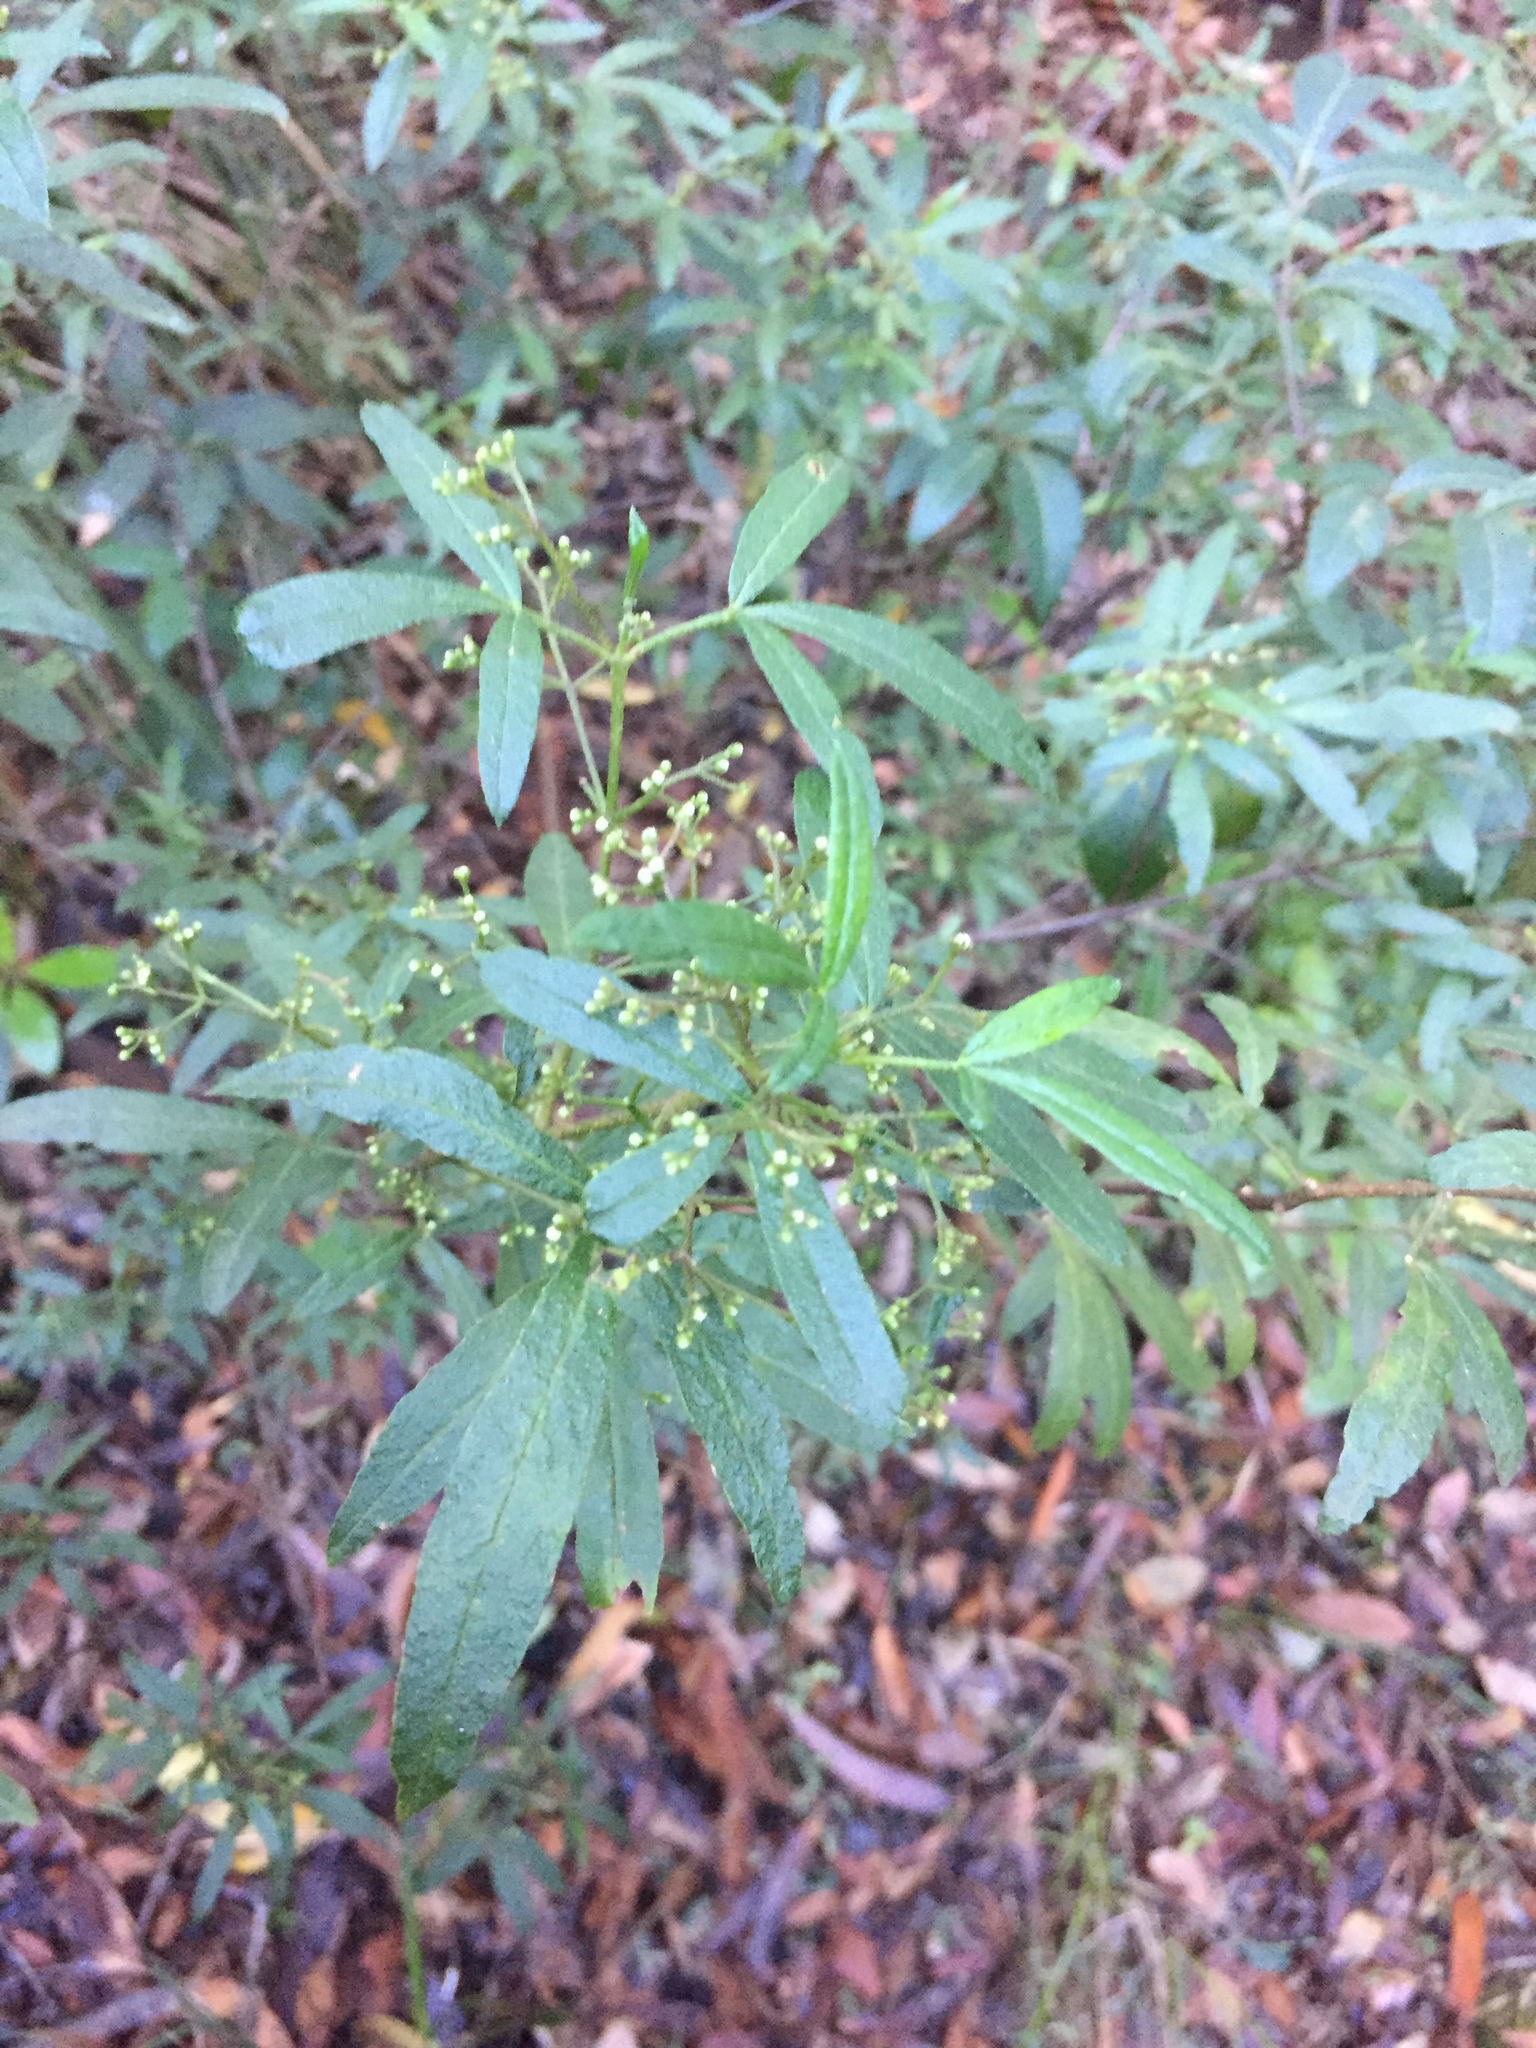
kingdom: Plantae
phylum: Tracheophyta
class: Magnoliopsida
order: Sapindales
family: Rutaceae
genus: Zieria
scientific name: Zieria smithii
